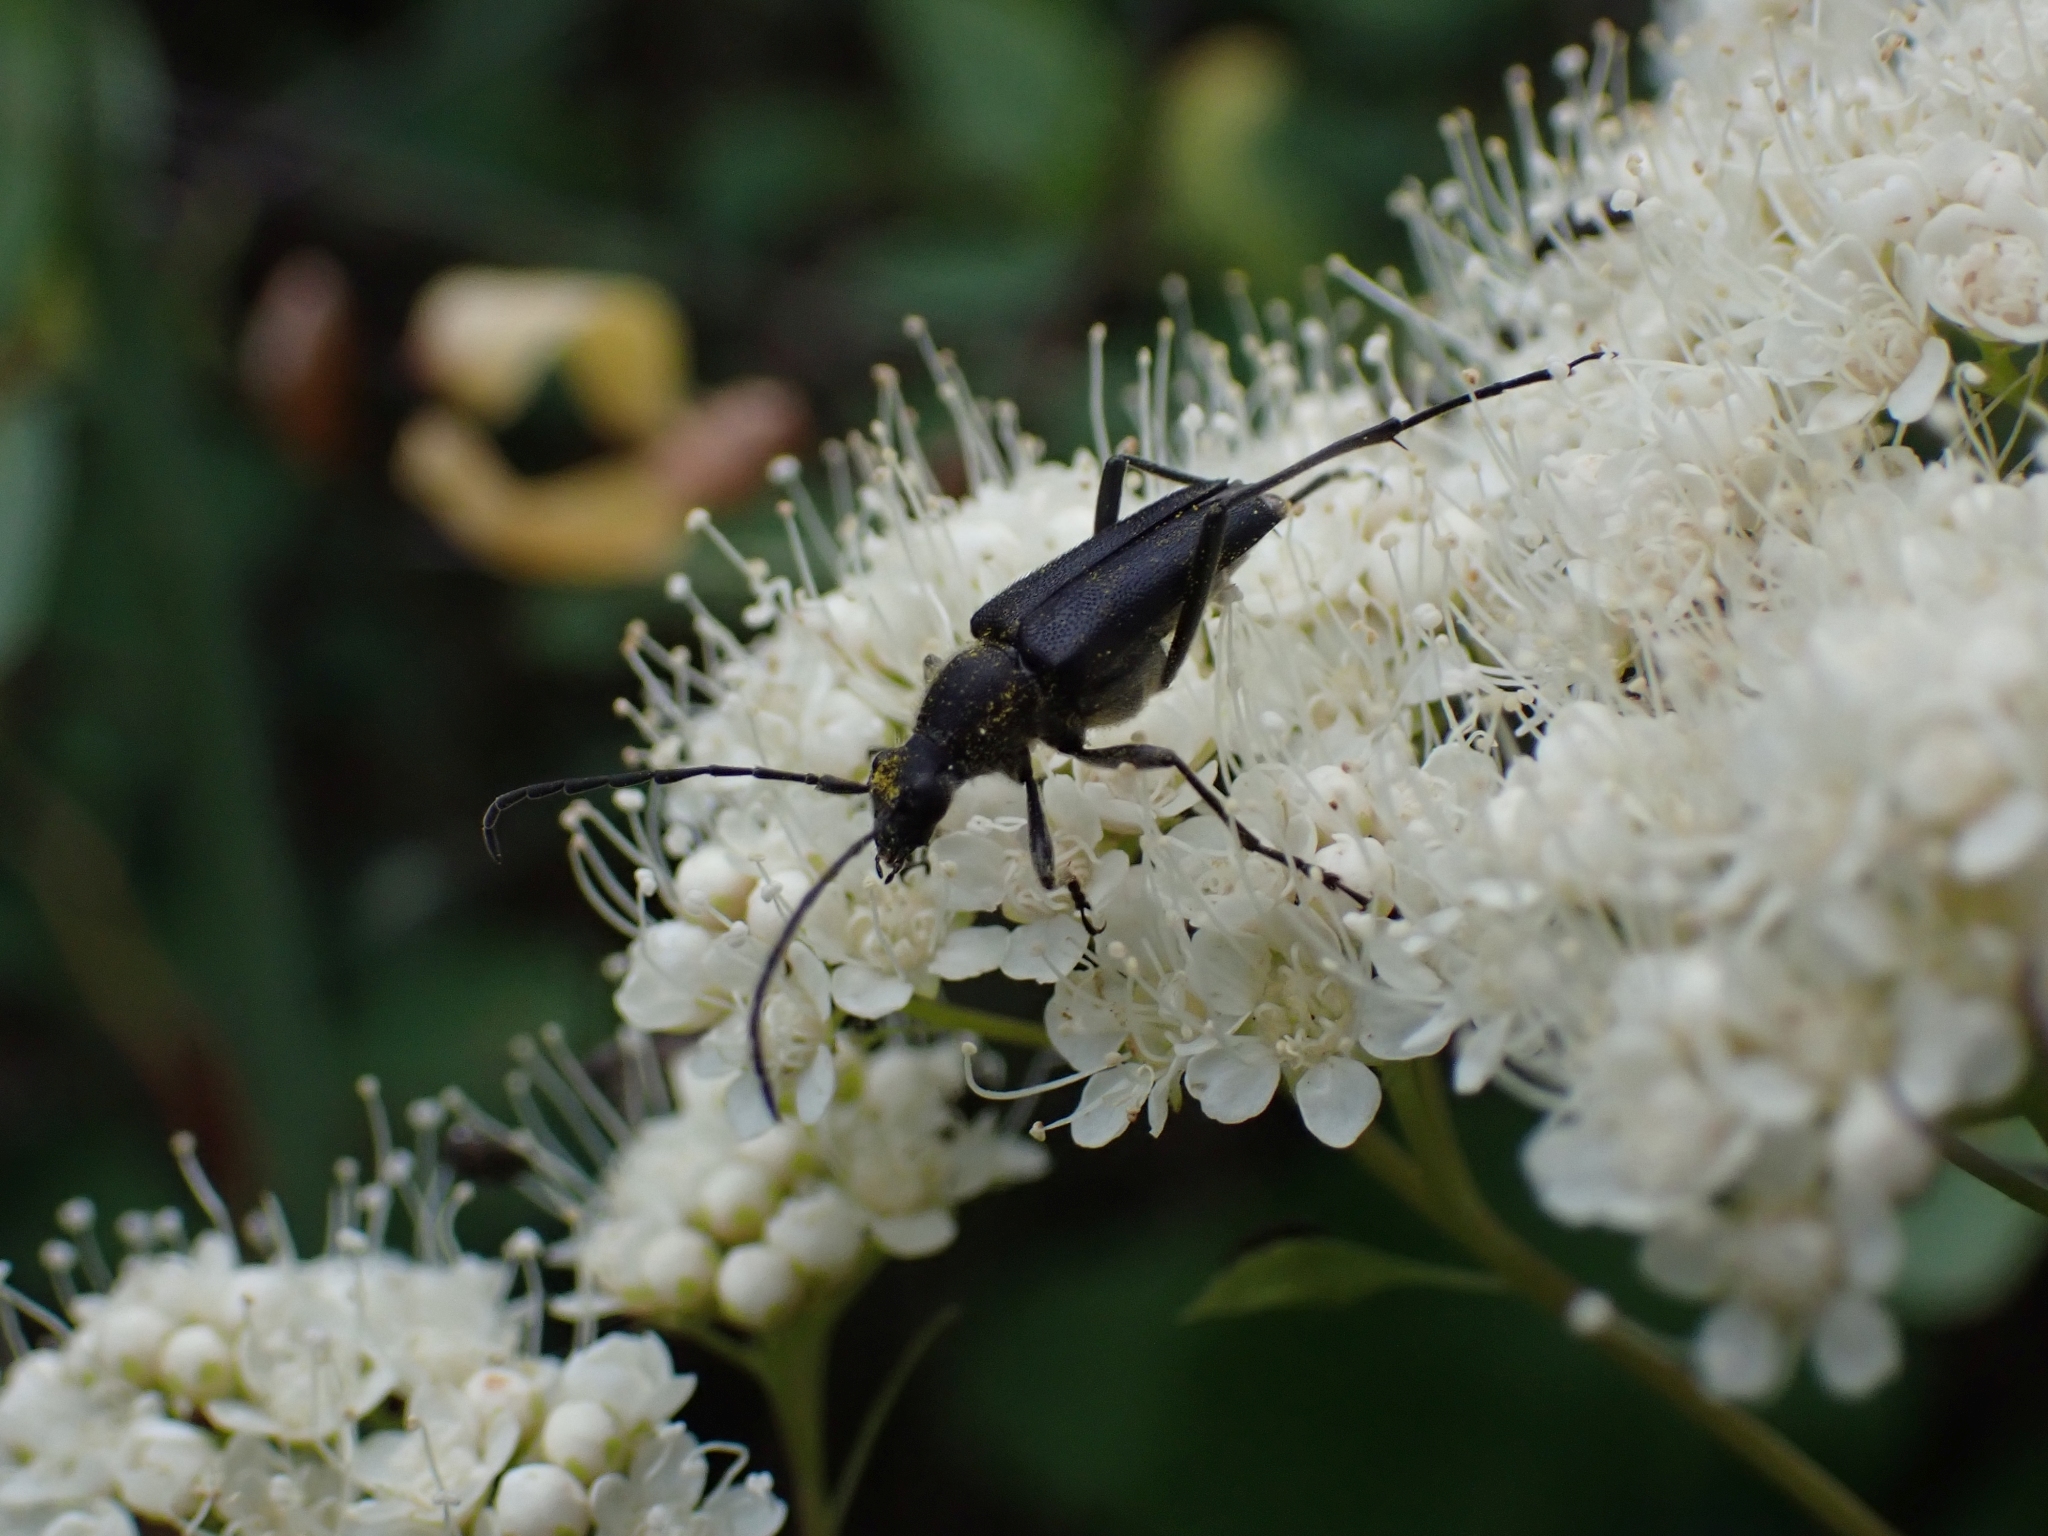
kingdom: Animalia
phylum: Arthropoda
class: Insecta
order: Coleoptera
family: Cerambycidae
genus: Anastrangalia
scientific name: Anastrangalia laetifica
